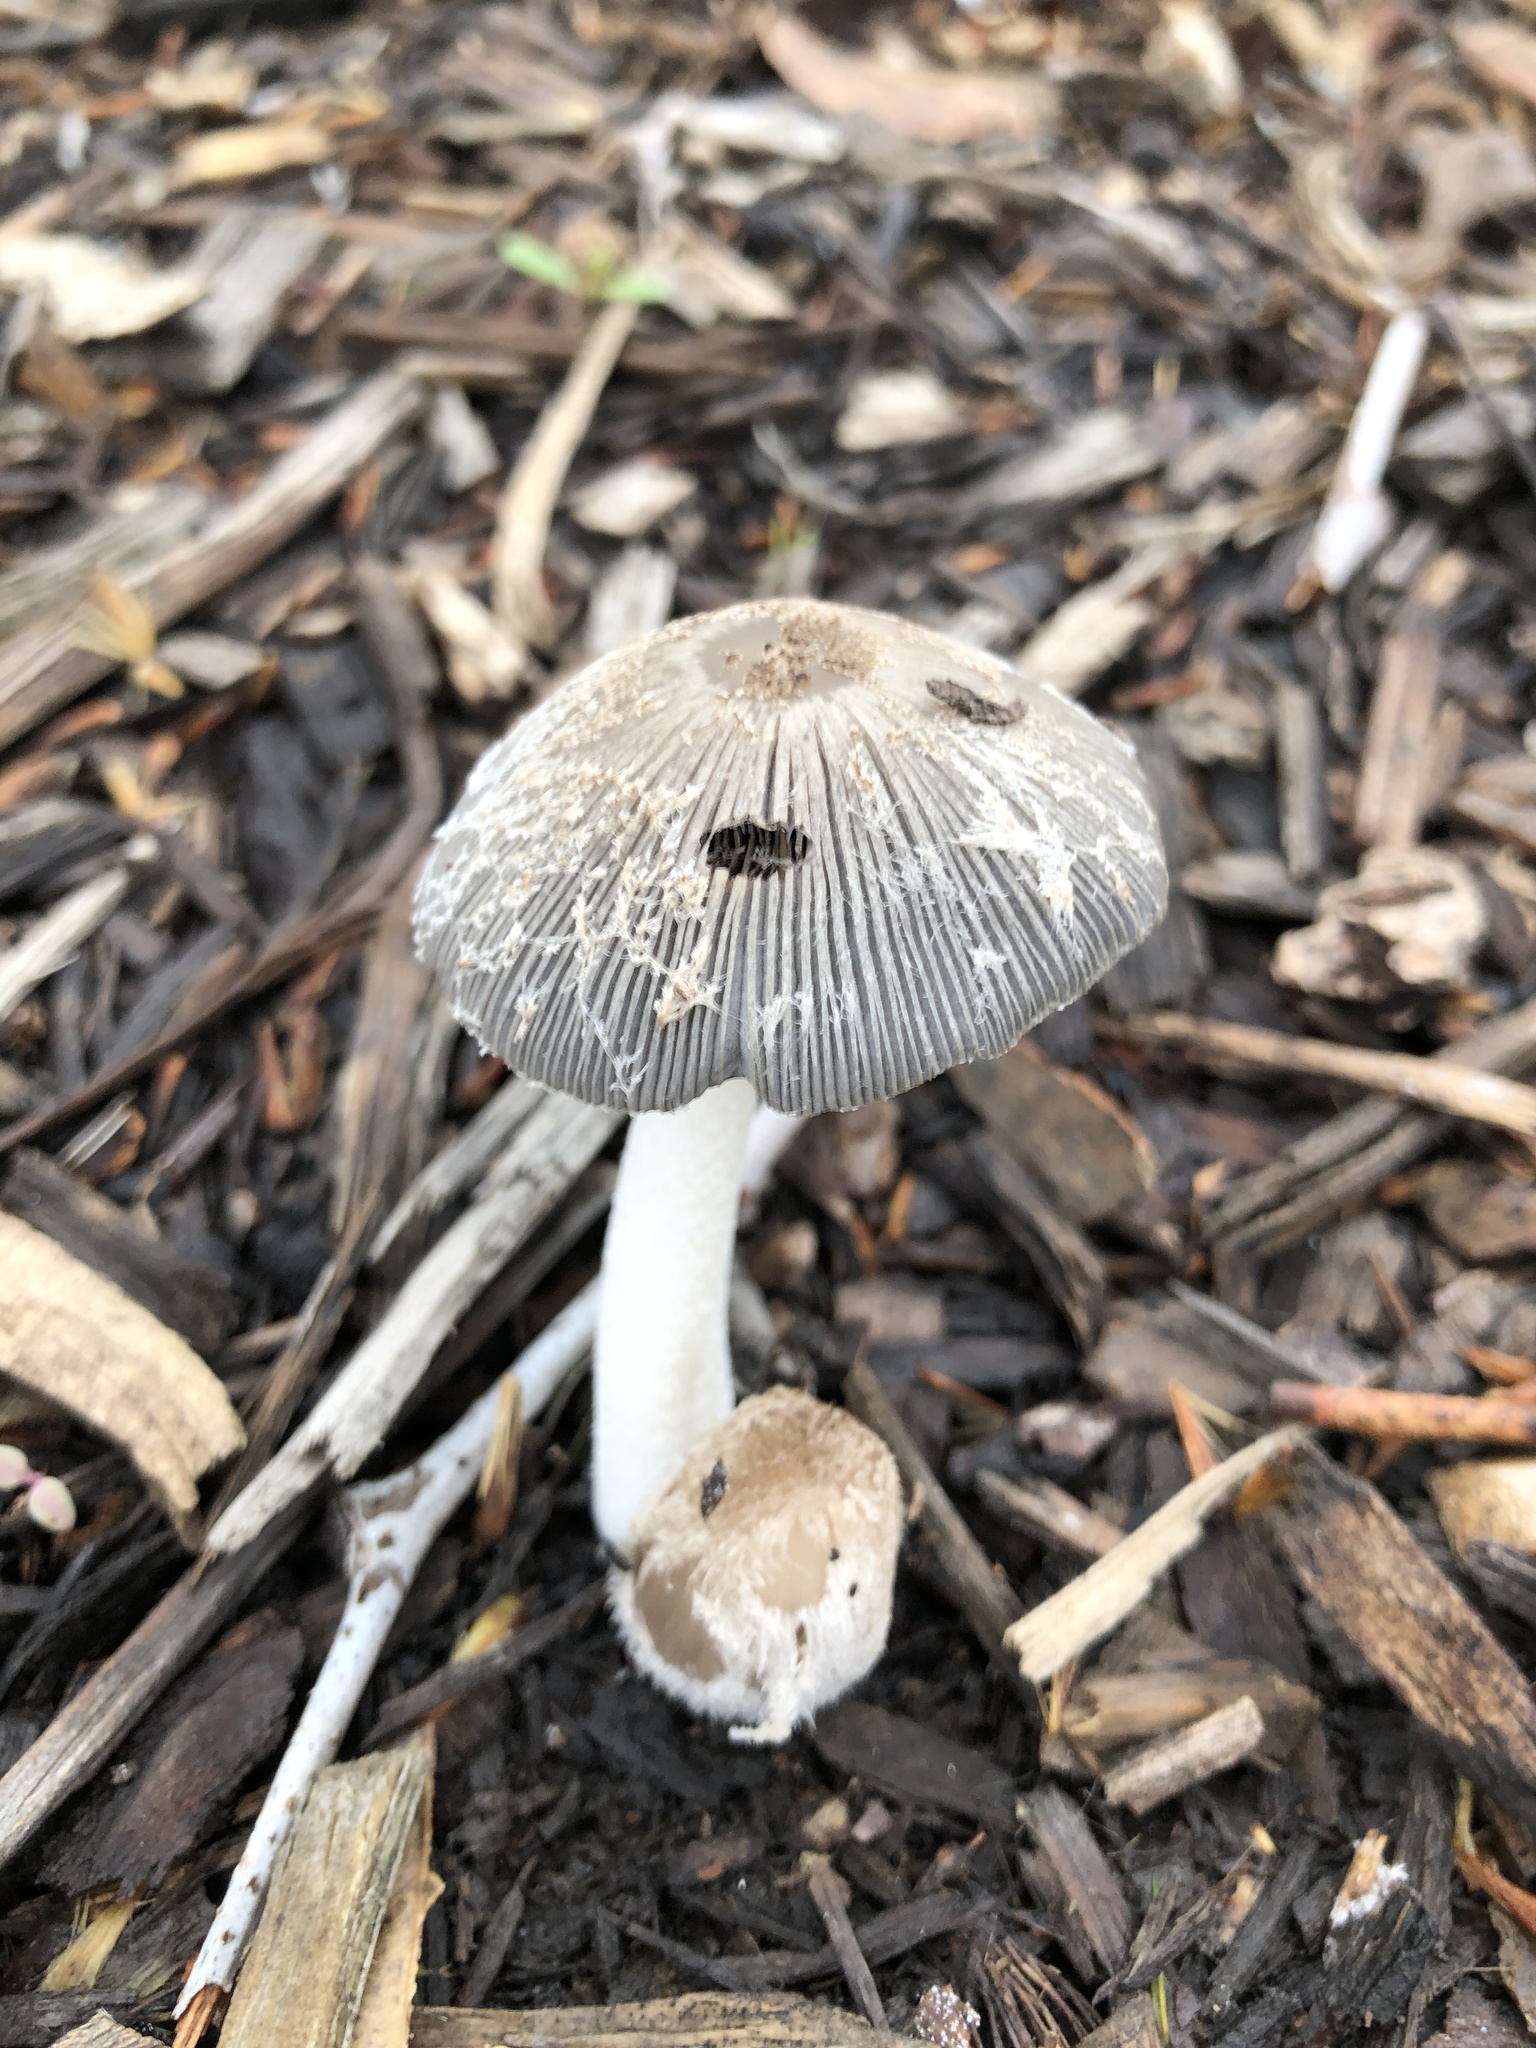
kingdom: Fungi
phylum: Basidiomycota
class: Agaricomycetes
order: Agaricales
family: Psathyrellaceae
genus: Coprinopsis
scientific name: Coprinopsis lagopus
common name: Hare'sfoot inkcap
